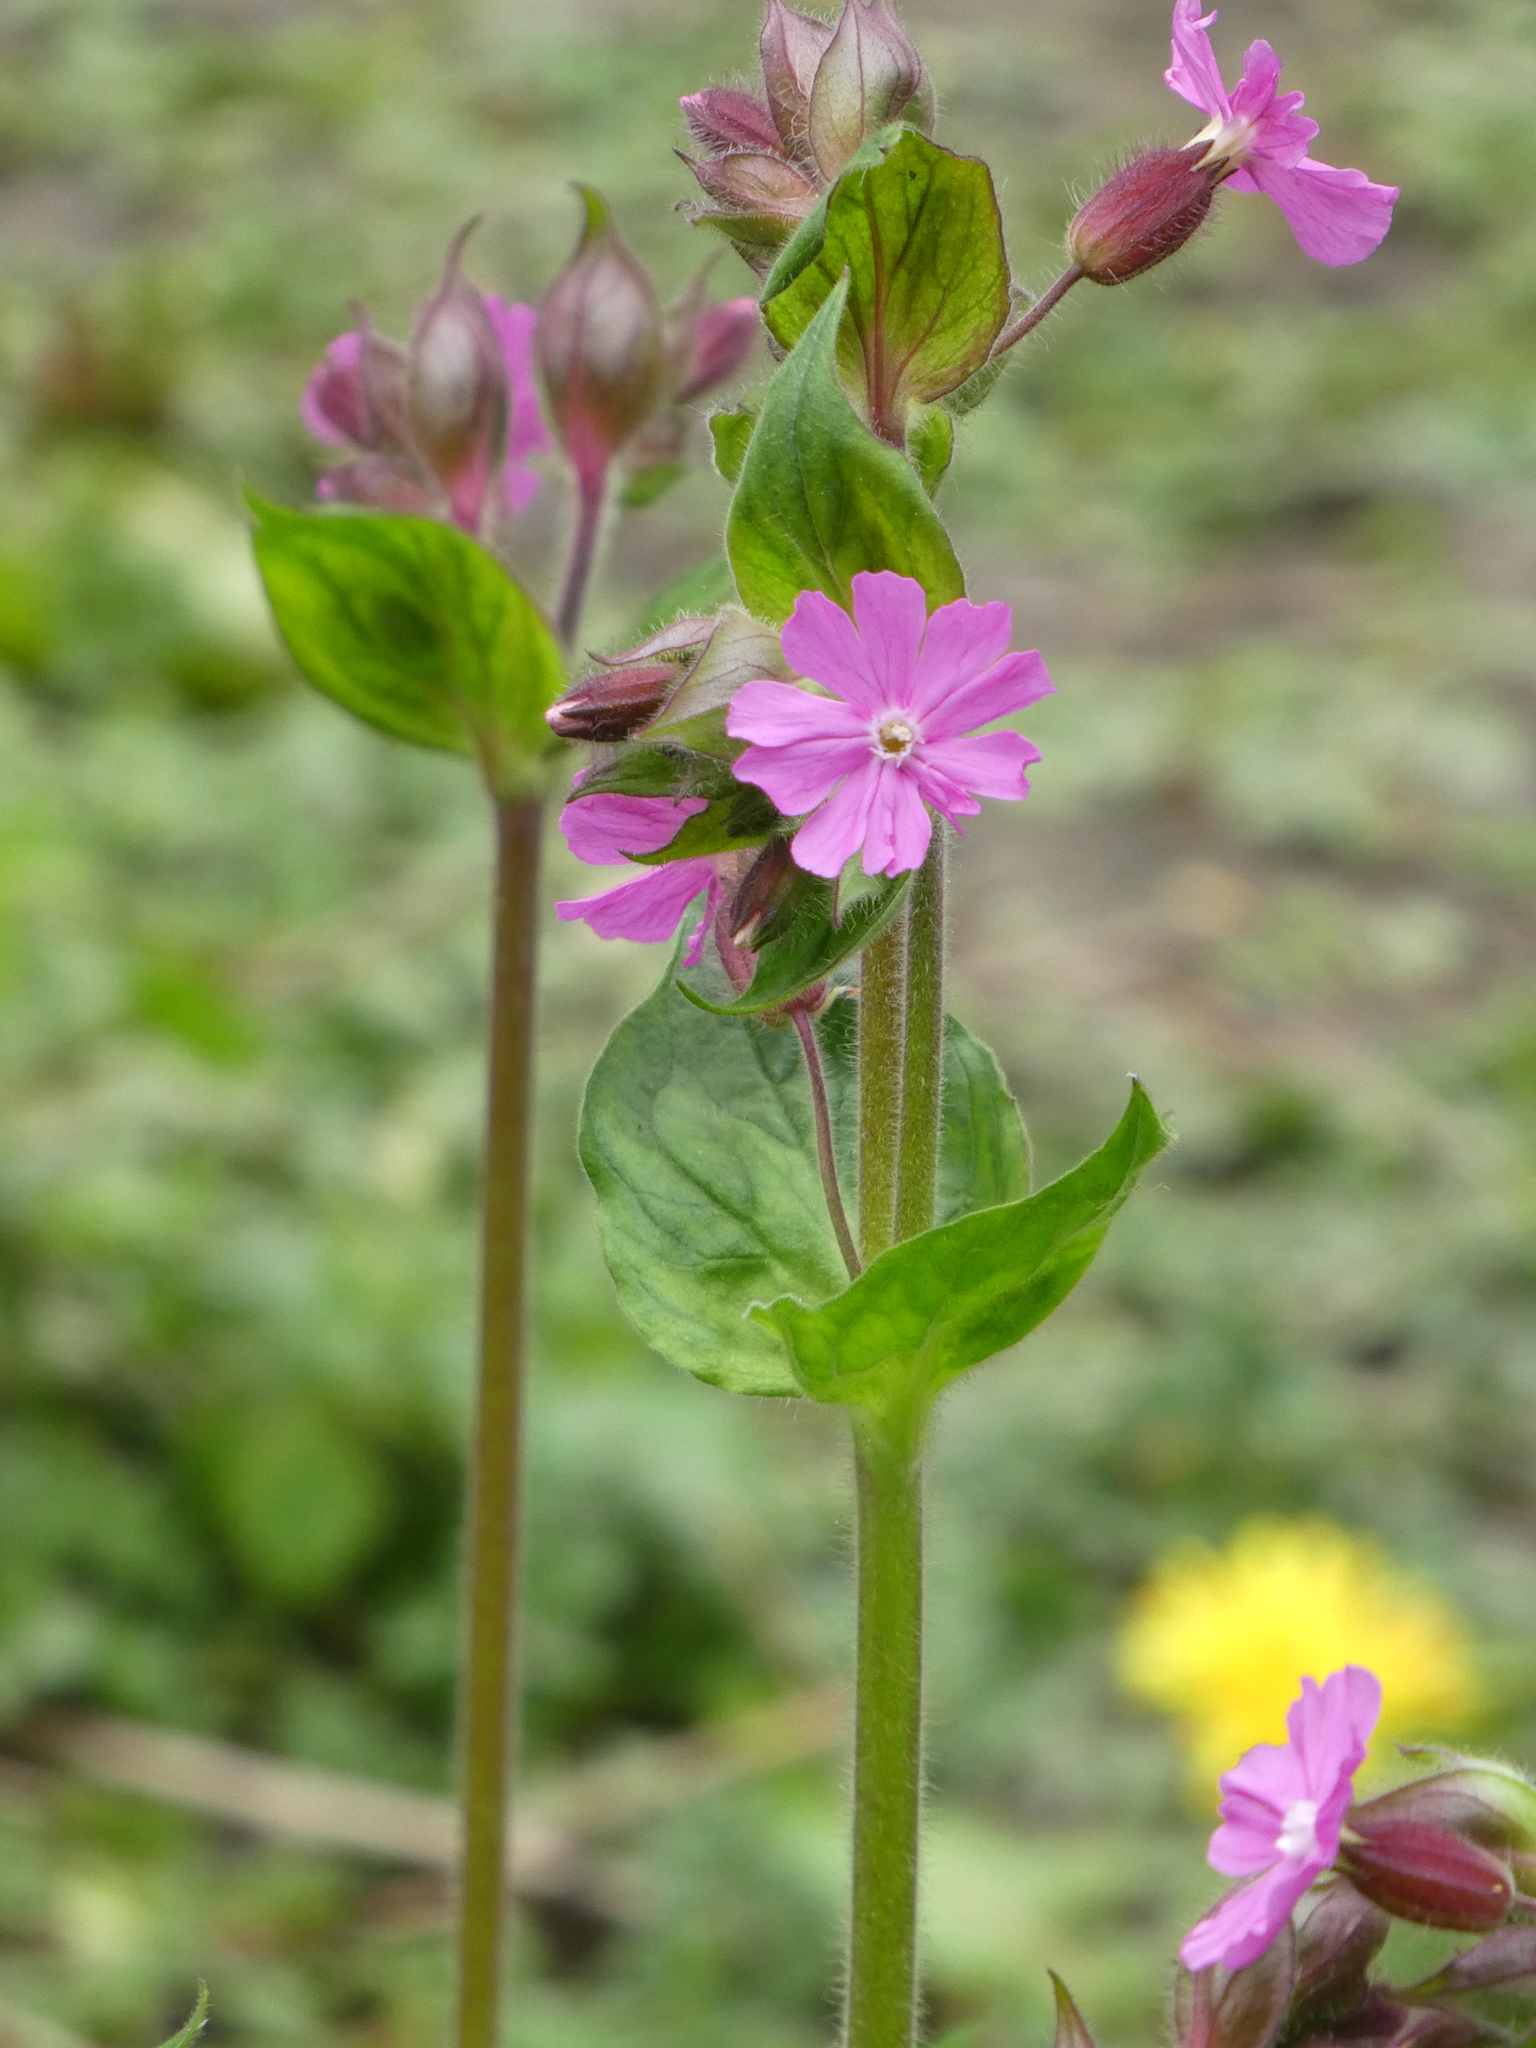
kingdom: Plantae
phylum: Tracheophyta
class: Magnoliopsida
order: Caryophyllales
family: Caryophyllaceae
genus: Silene
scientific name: Silene dioica
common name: Red campion
